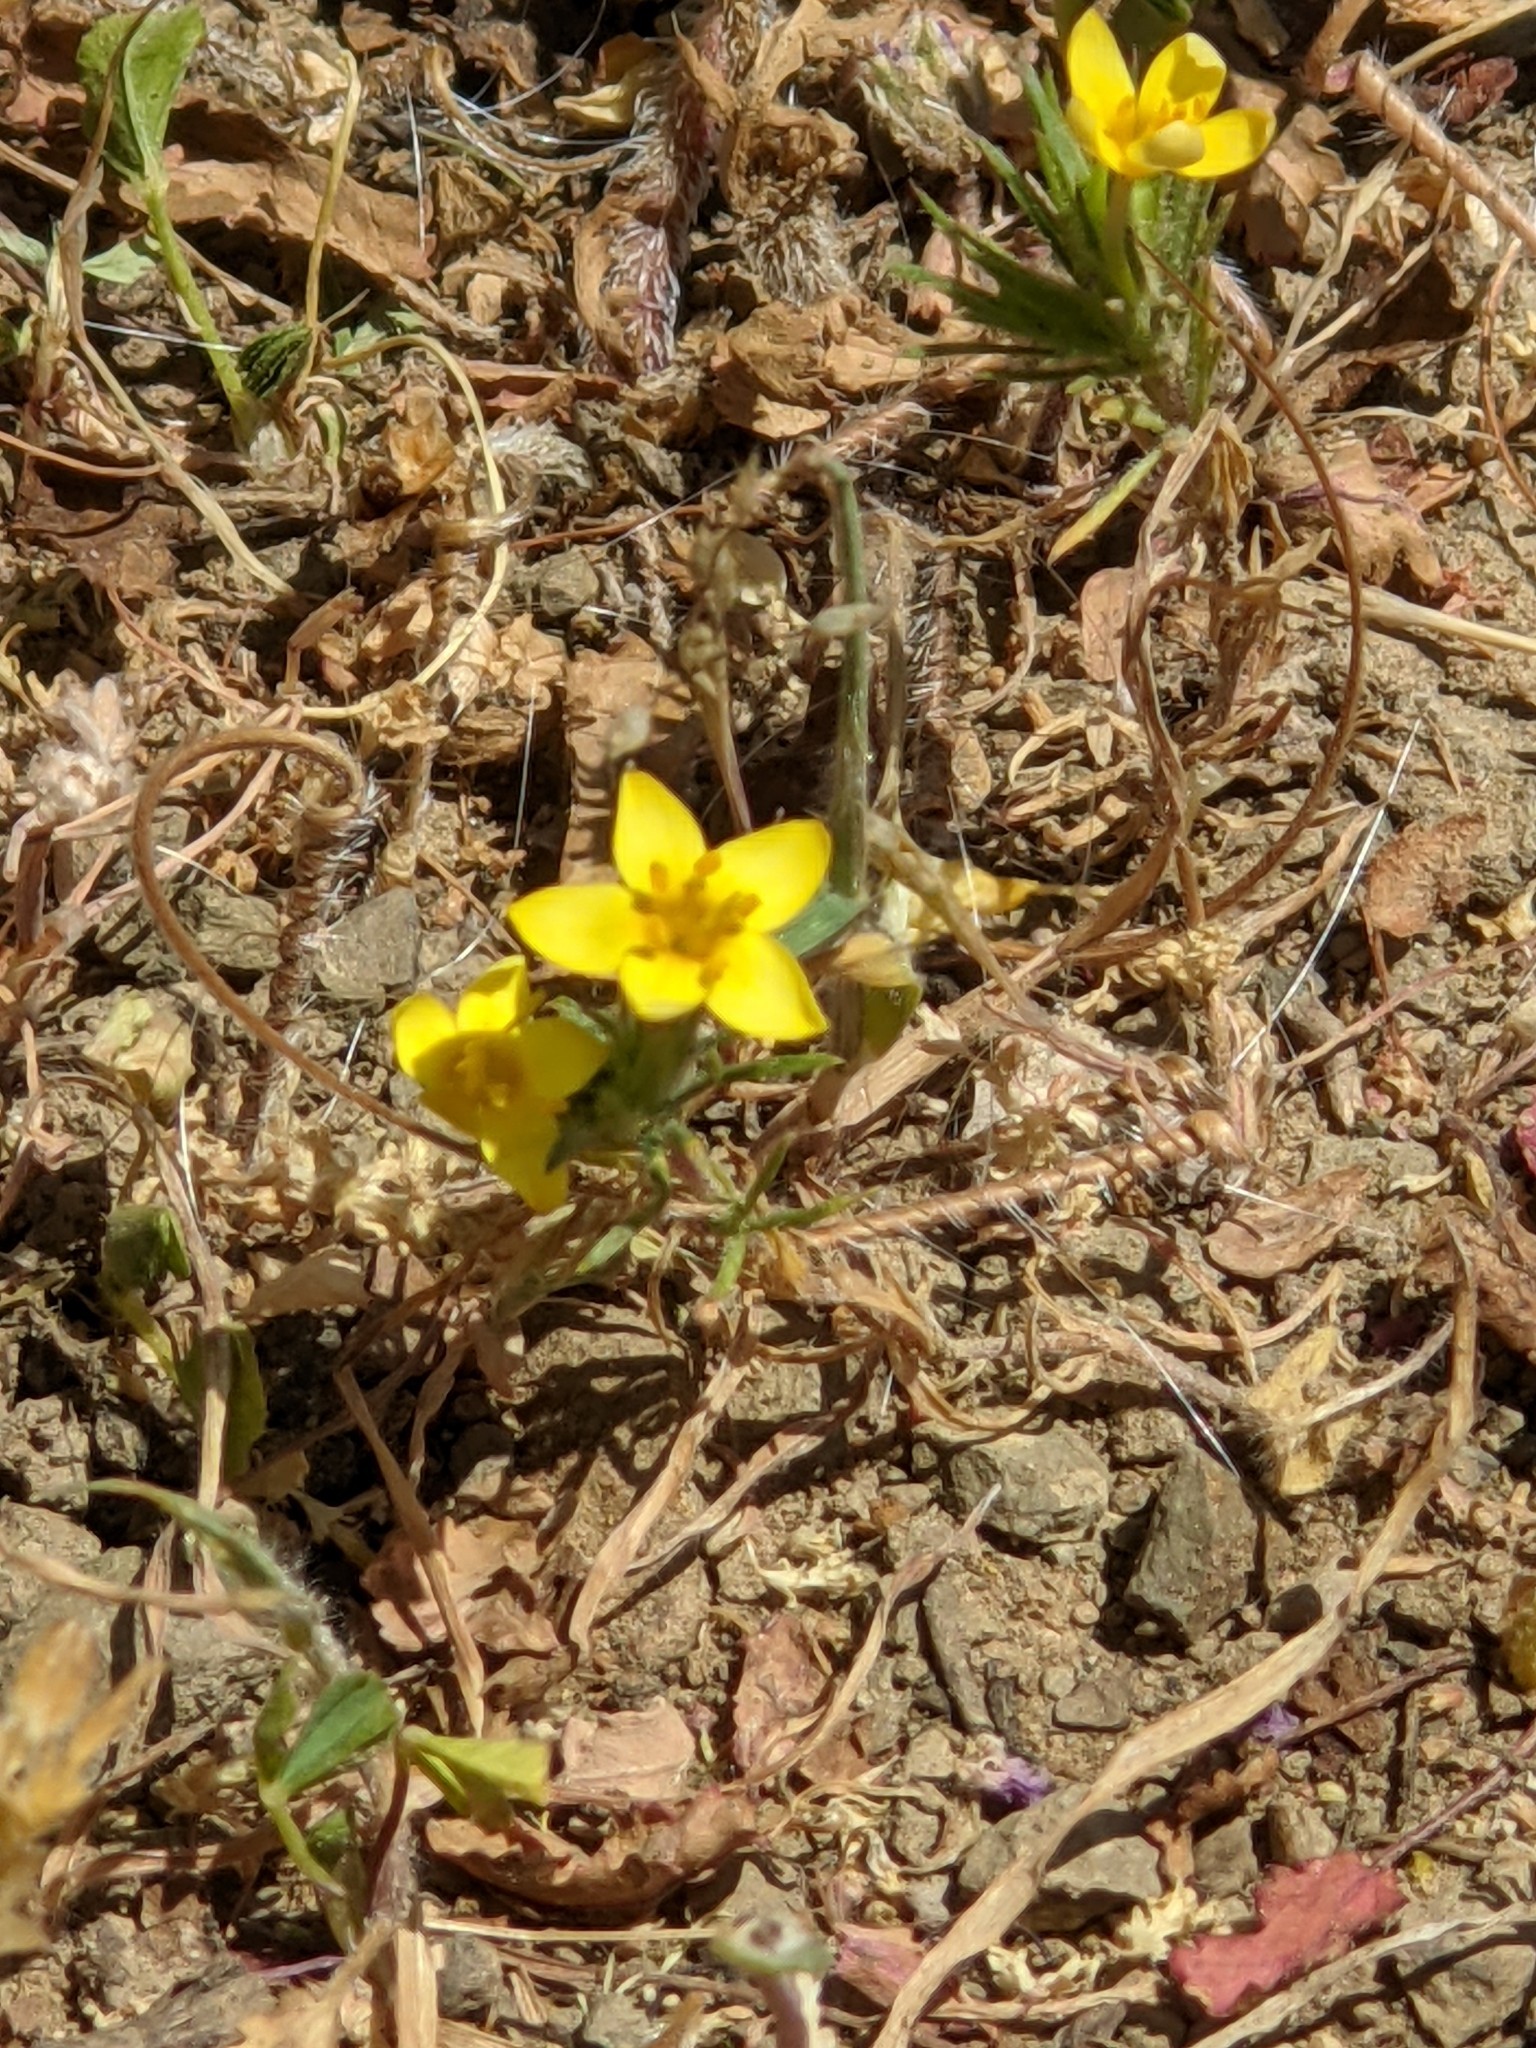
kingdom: Plantae
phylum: Tracheophyta
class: Magnoliopsida
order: Ericales
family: Polemoniaceae
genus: Leptosiphon
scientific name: Leptosiphon acicularis
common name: Bristly linanthus
